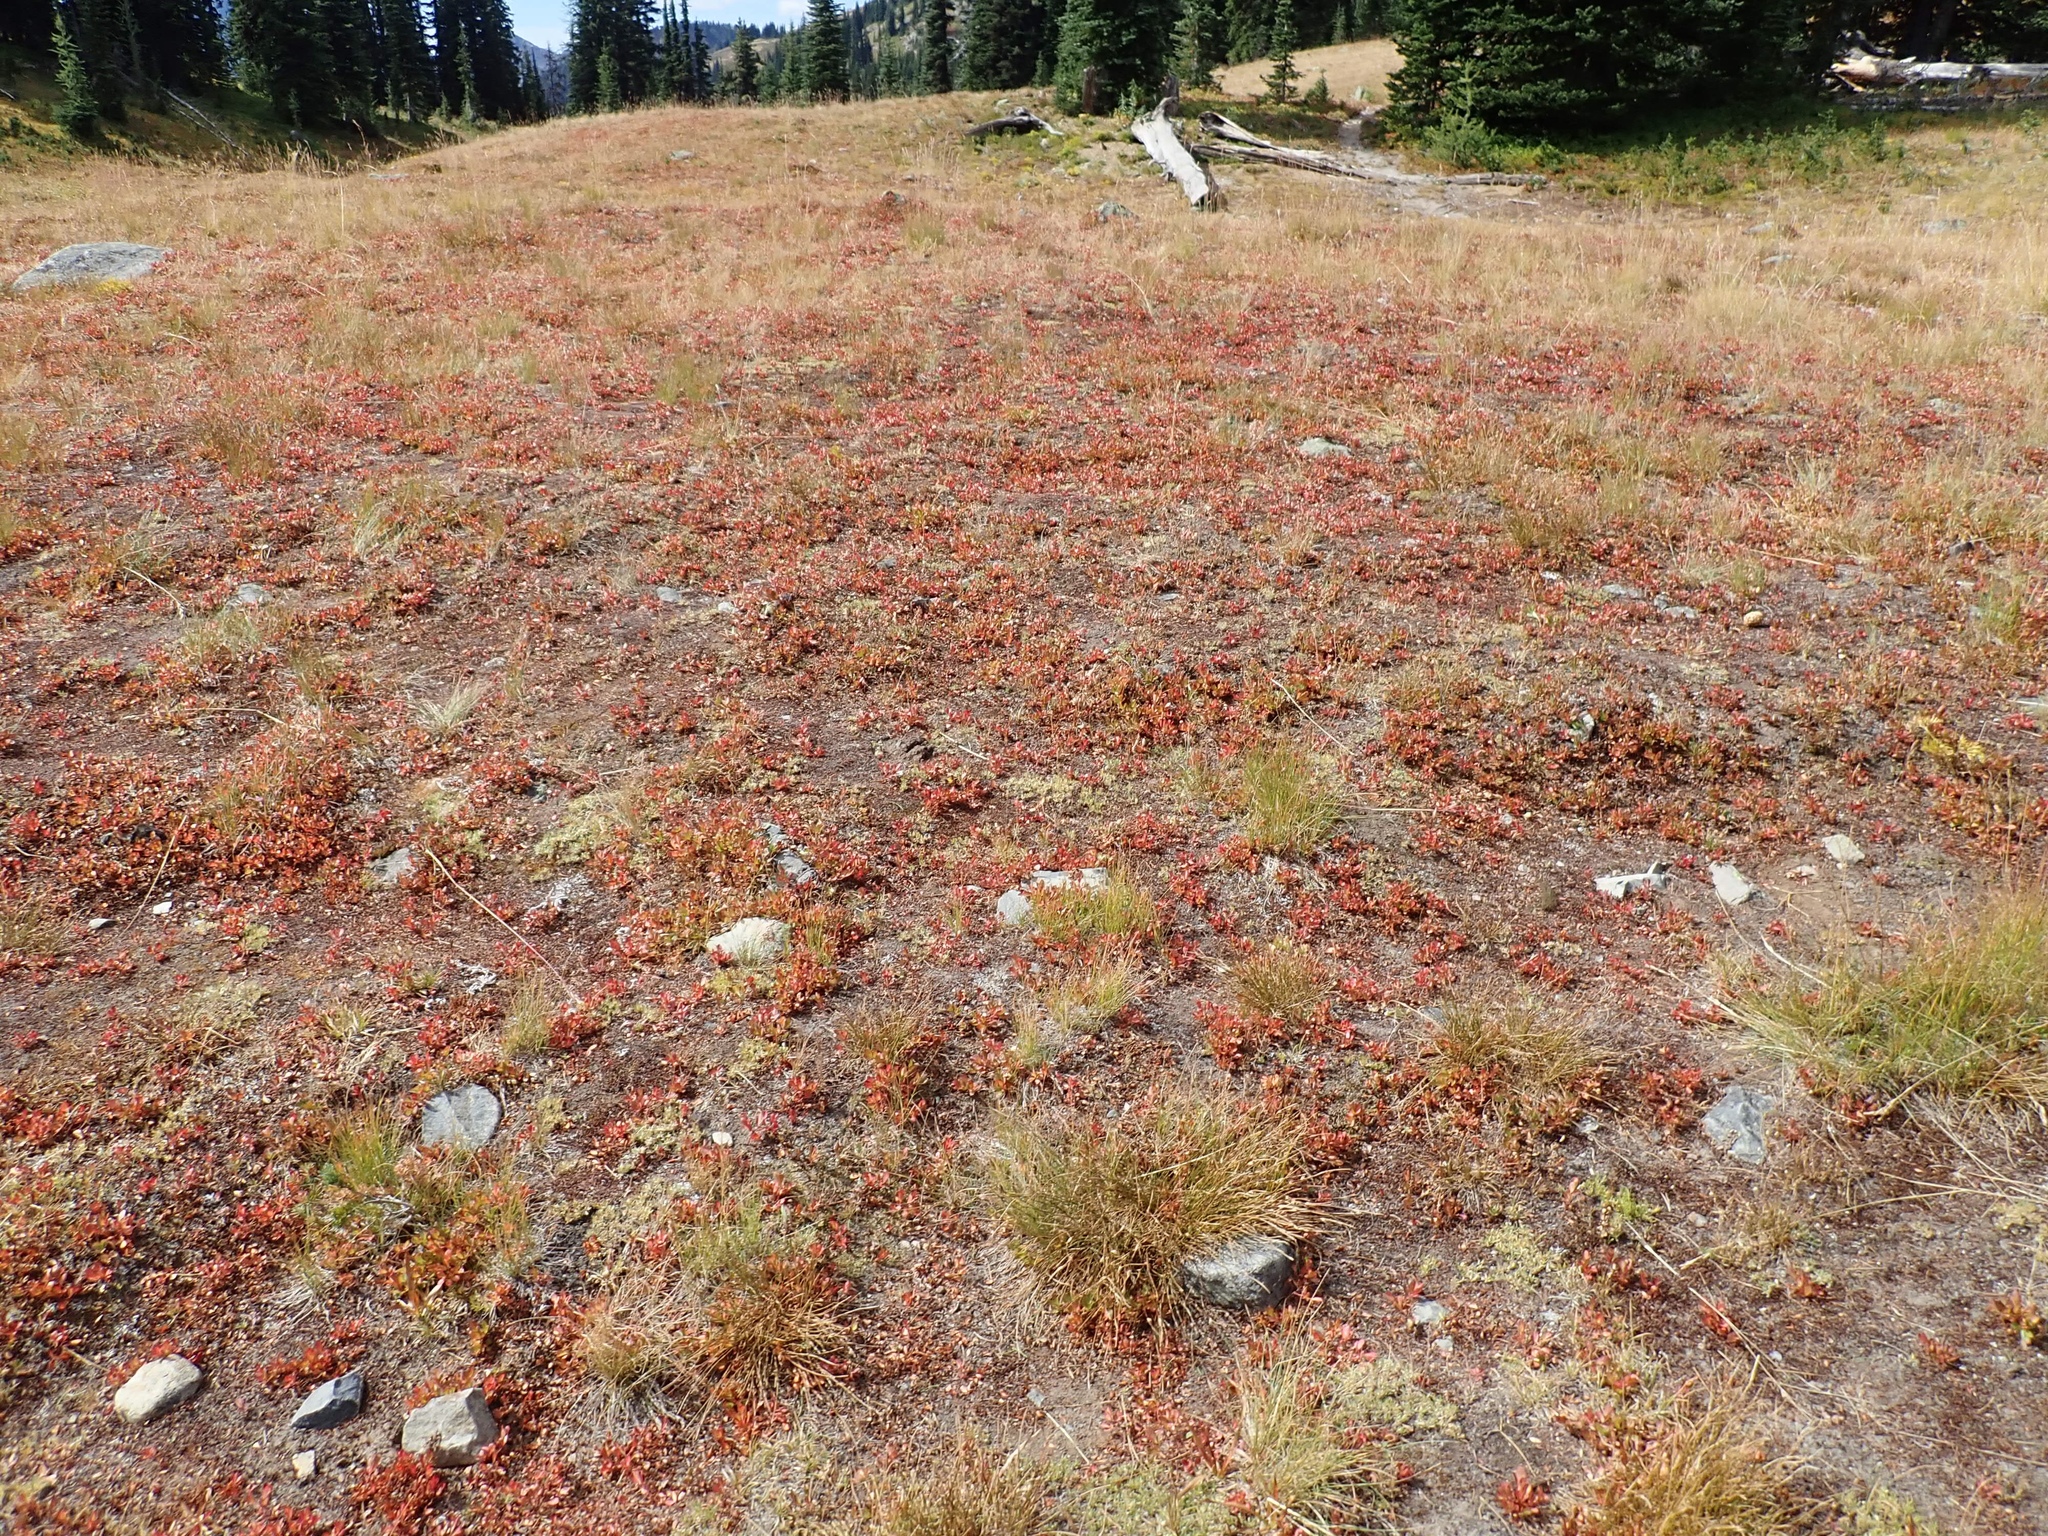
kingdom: Plantae
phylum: Tracheophyta
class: Magnoliopsida
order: Ericales
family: Ericaceae
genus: Vaccinium
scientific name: Vaccinium cespitosum
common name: Dwarf bilberry
